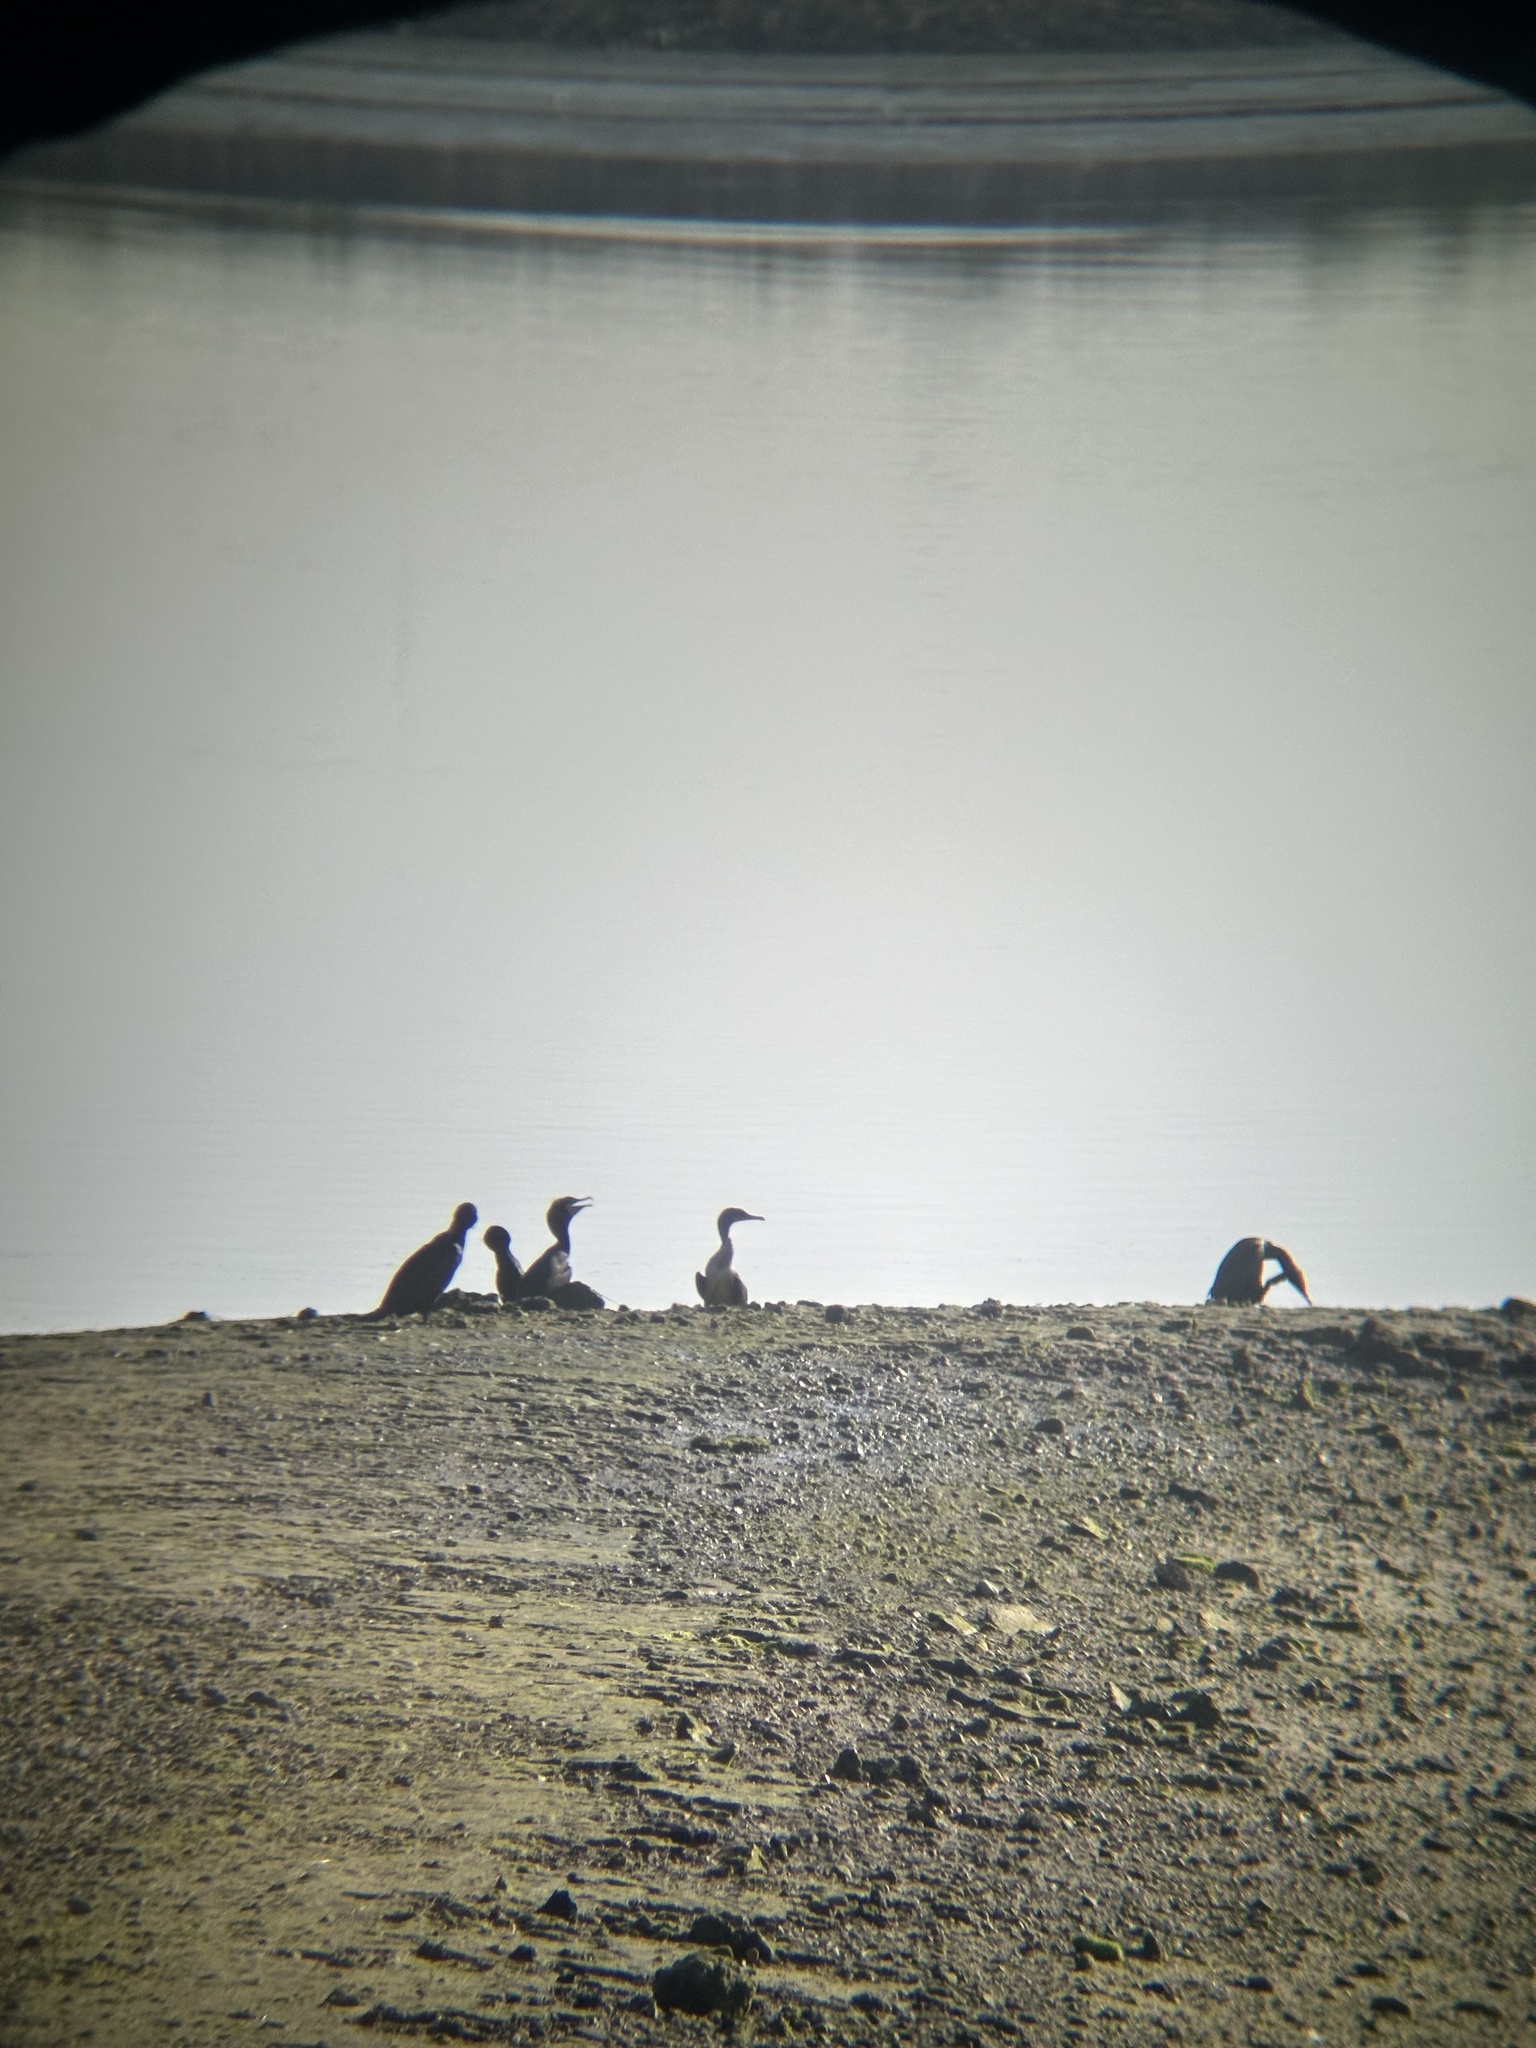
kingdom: Animalia
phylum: Chordata
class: Aves
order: Suliformes
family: Phalacrocoracidae
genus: Phalacrocorax
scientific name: Phalacrocorax auritus
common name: Double-crested cormorant
